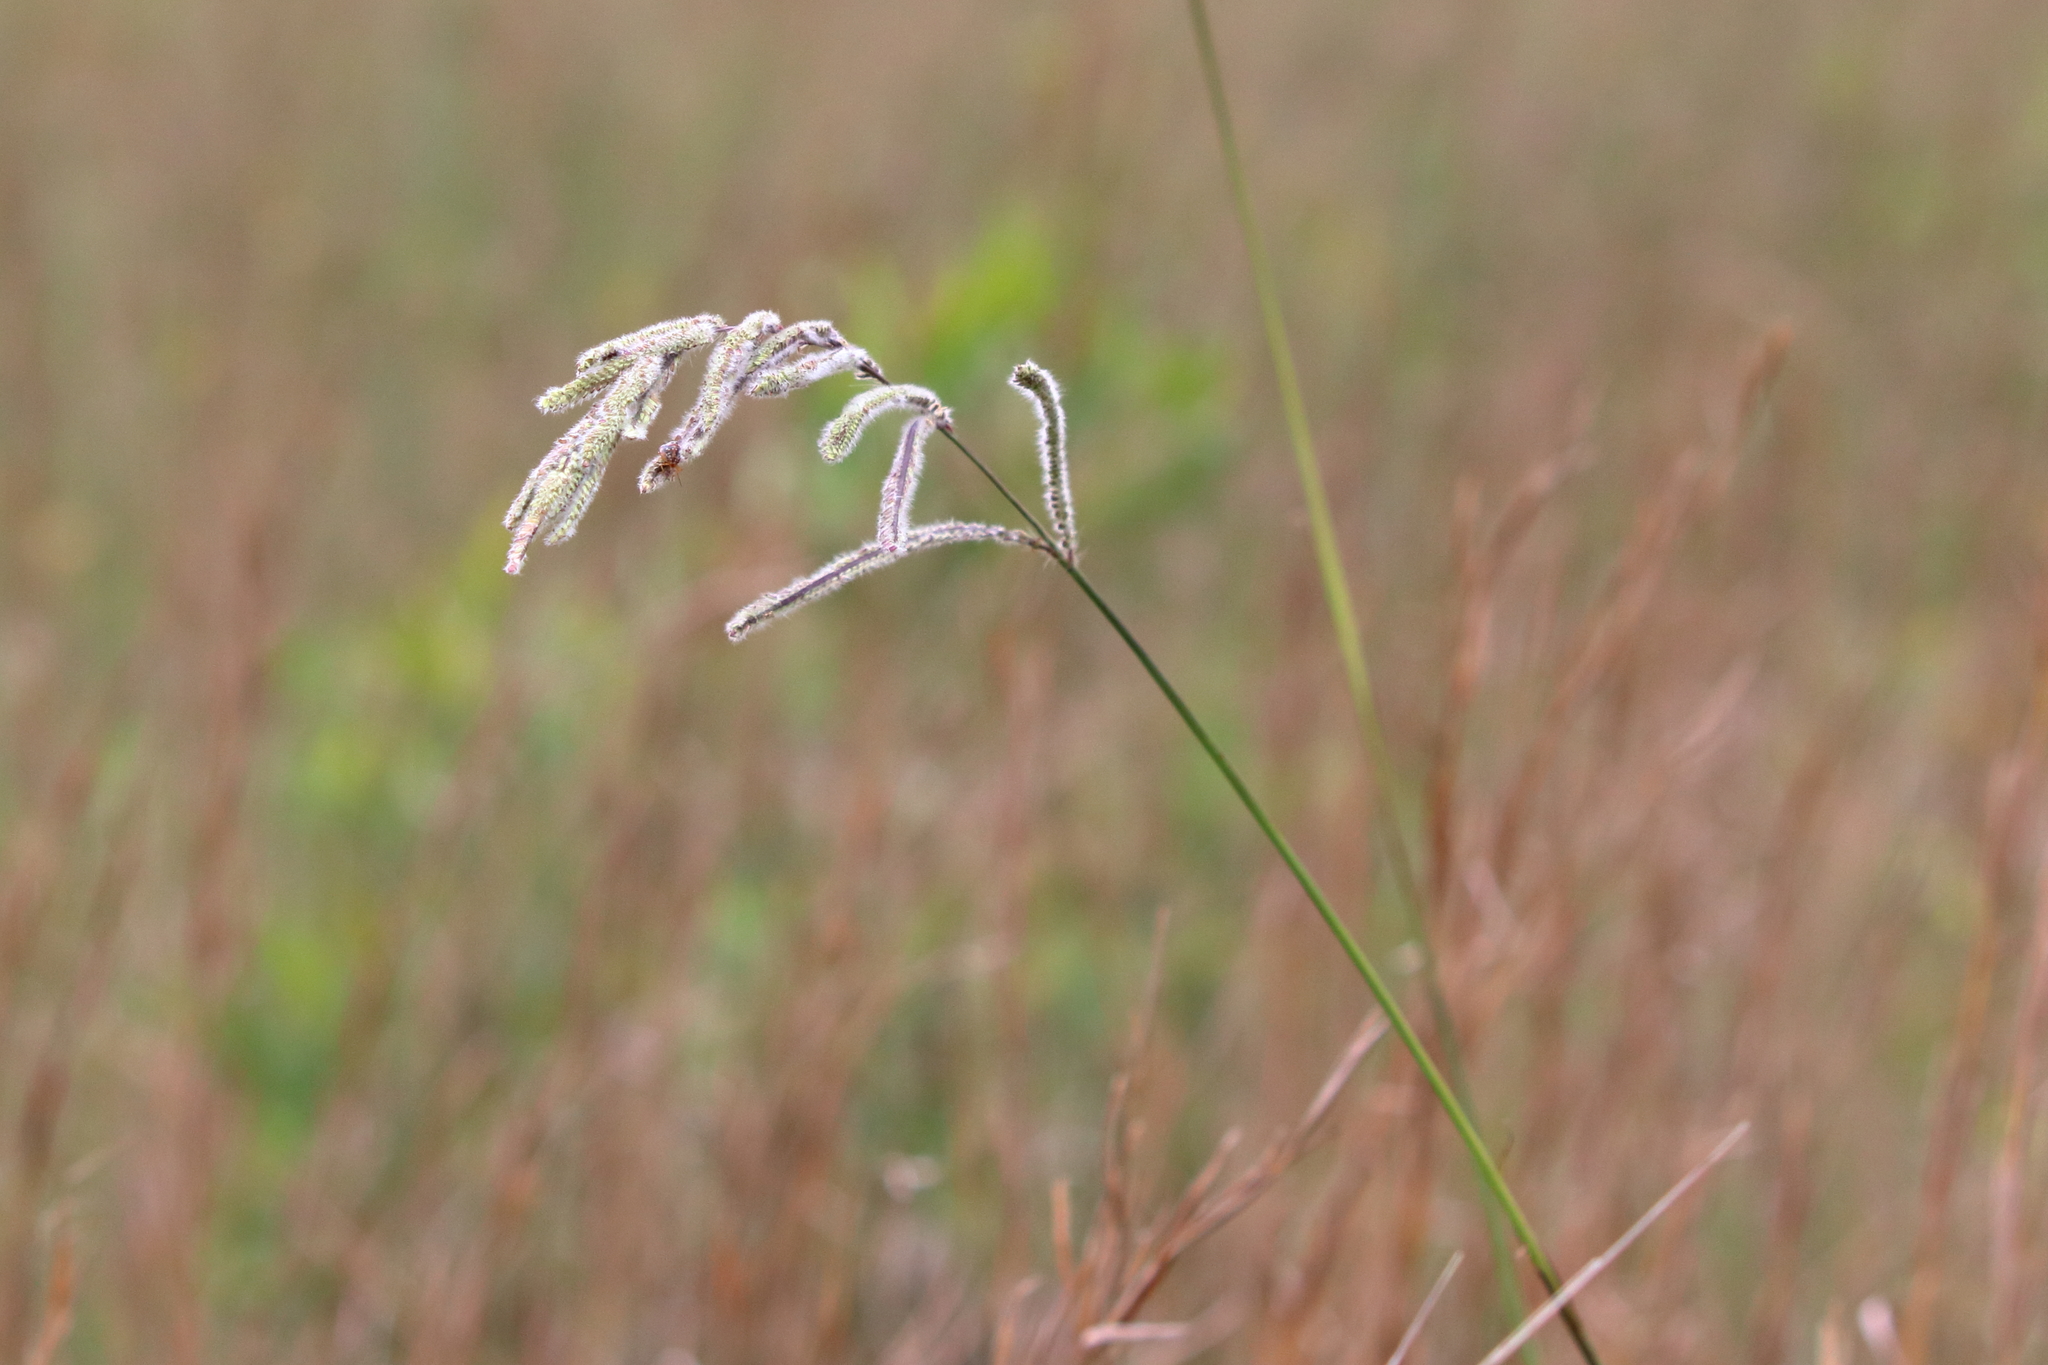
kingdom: Plantae
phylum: Tracheophyta
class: Liliopsida
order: Poales
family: Poaceae
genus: Paspalum
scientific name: Paspalum urvillei
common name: Vasey's grass
